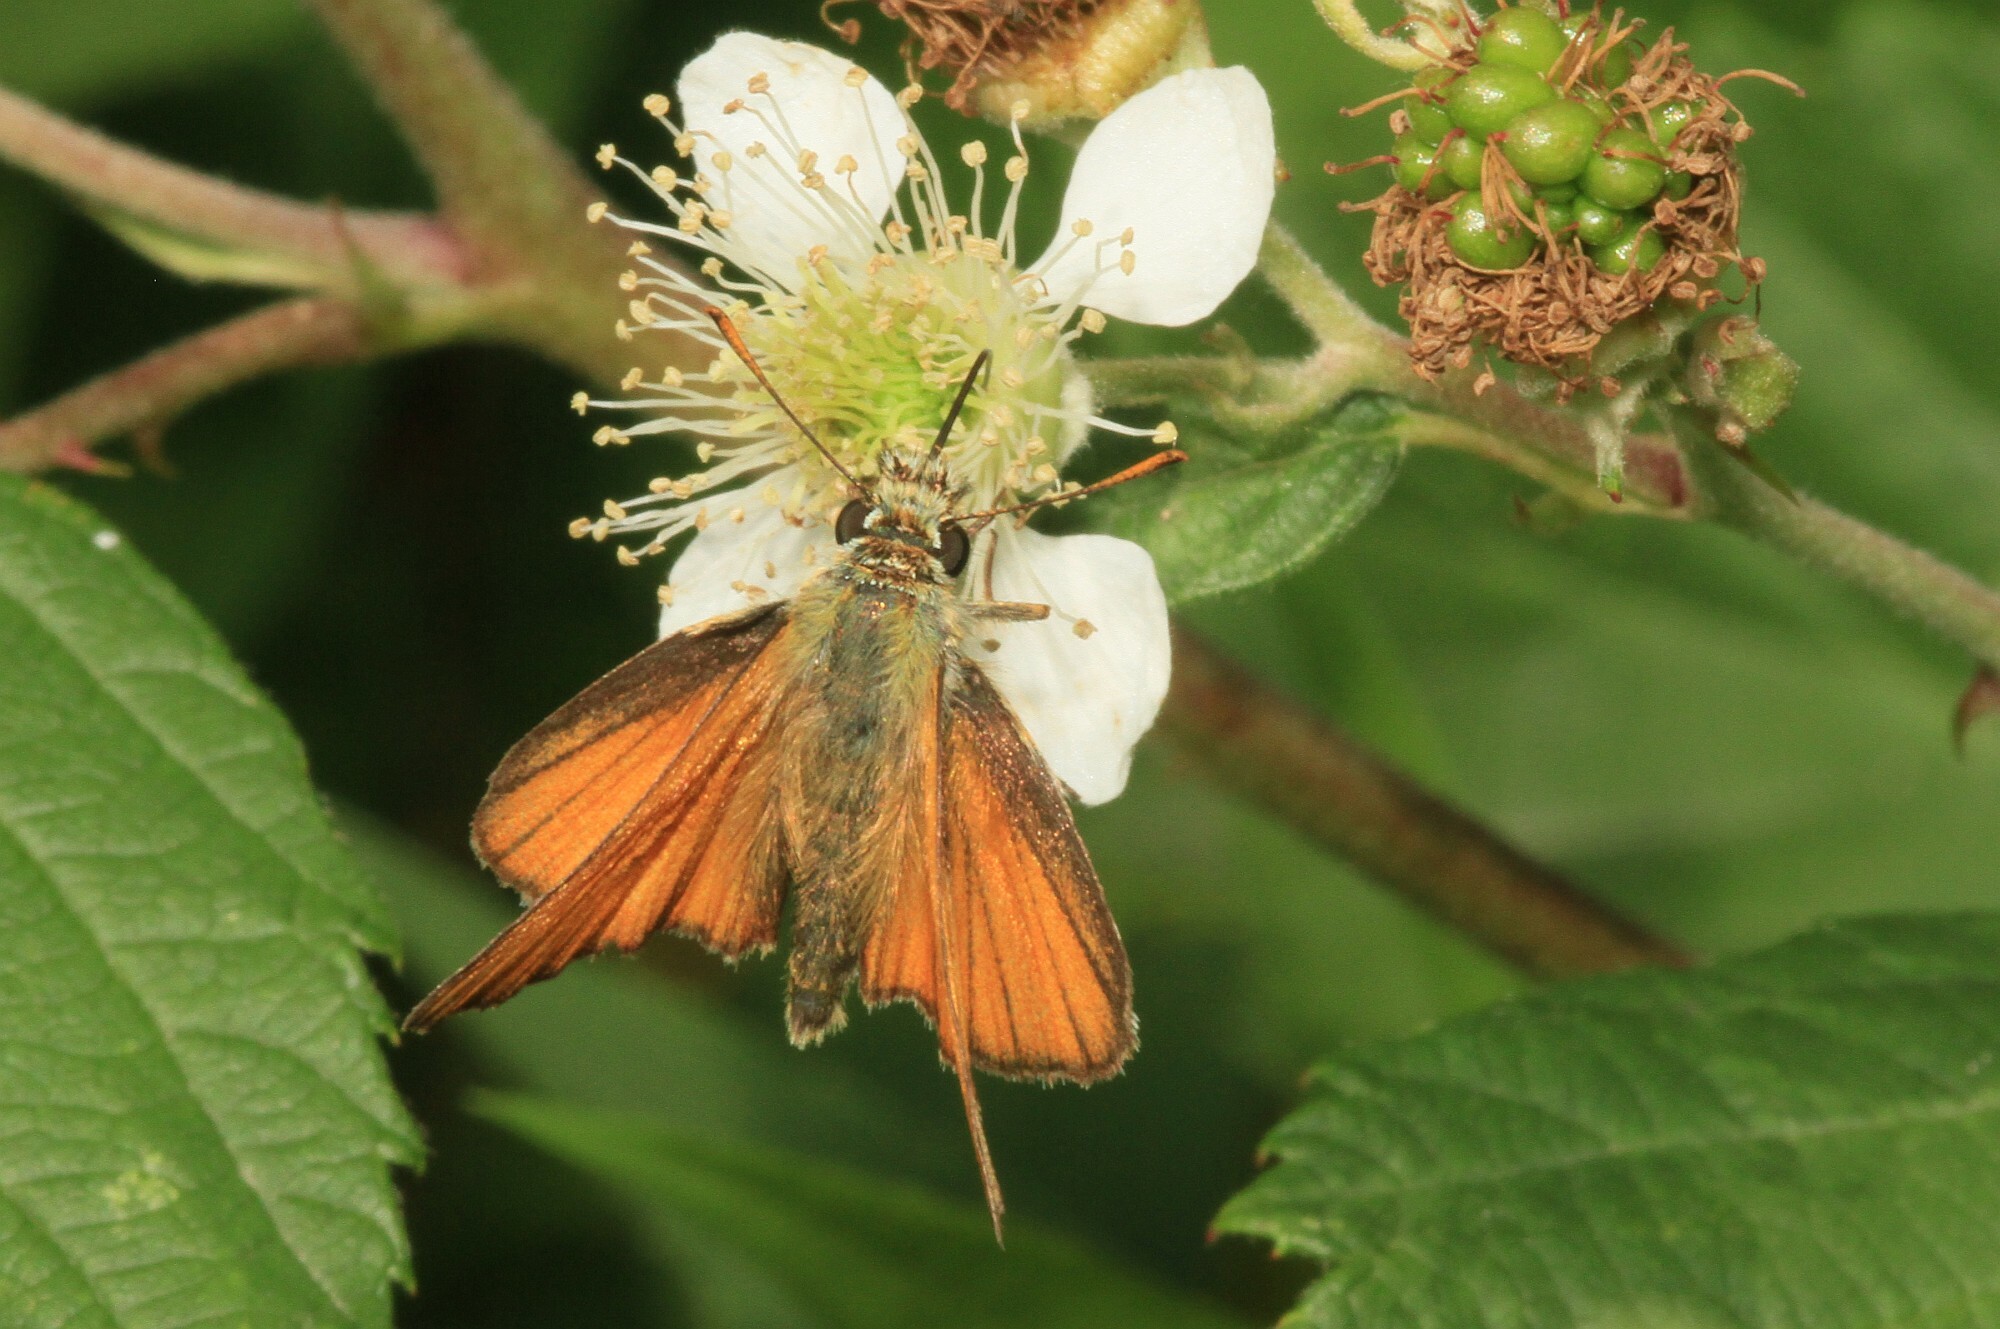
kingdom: Animalia
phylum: Arthropoda
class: Insecta
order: Lepidoptera
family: Hesperiidae
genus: Thymelicus
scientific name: Thymelicus sylvestris
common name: Small skipper
